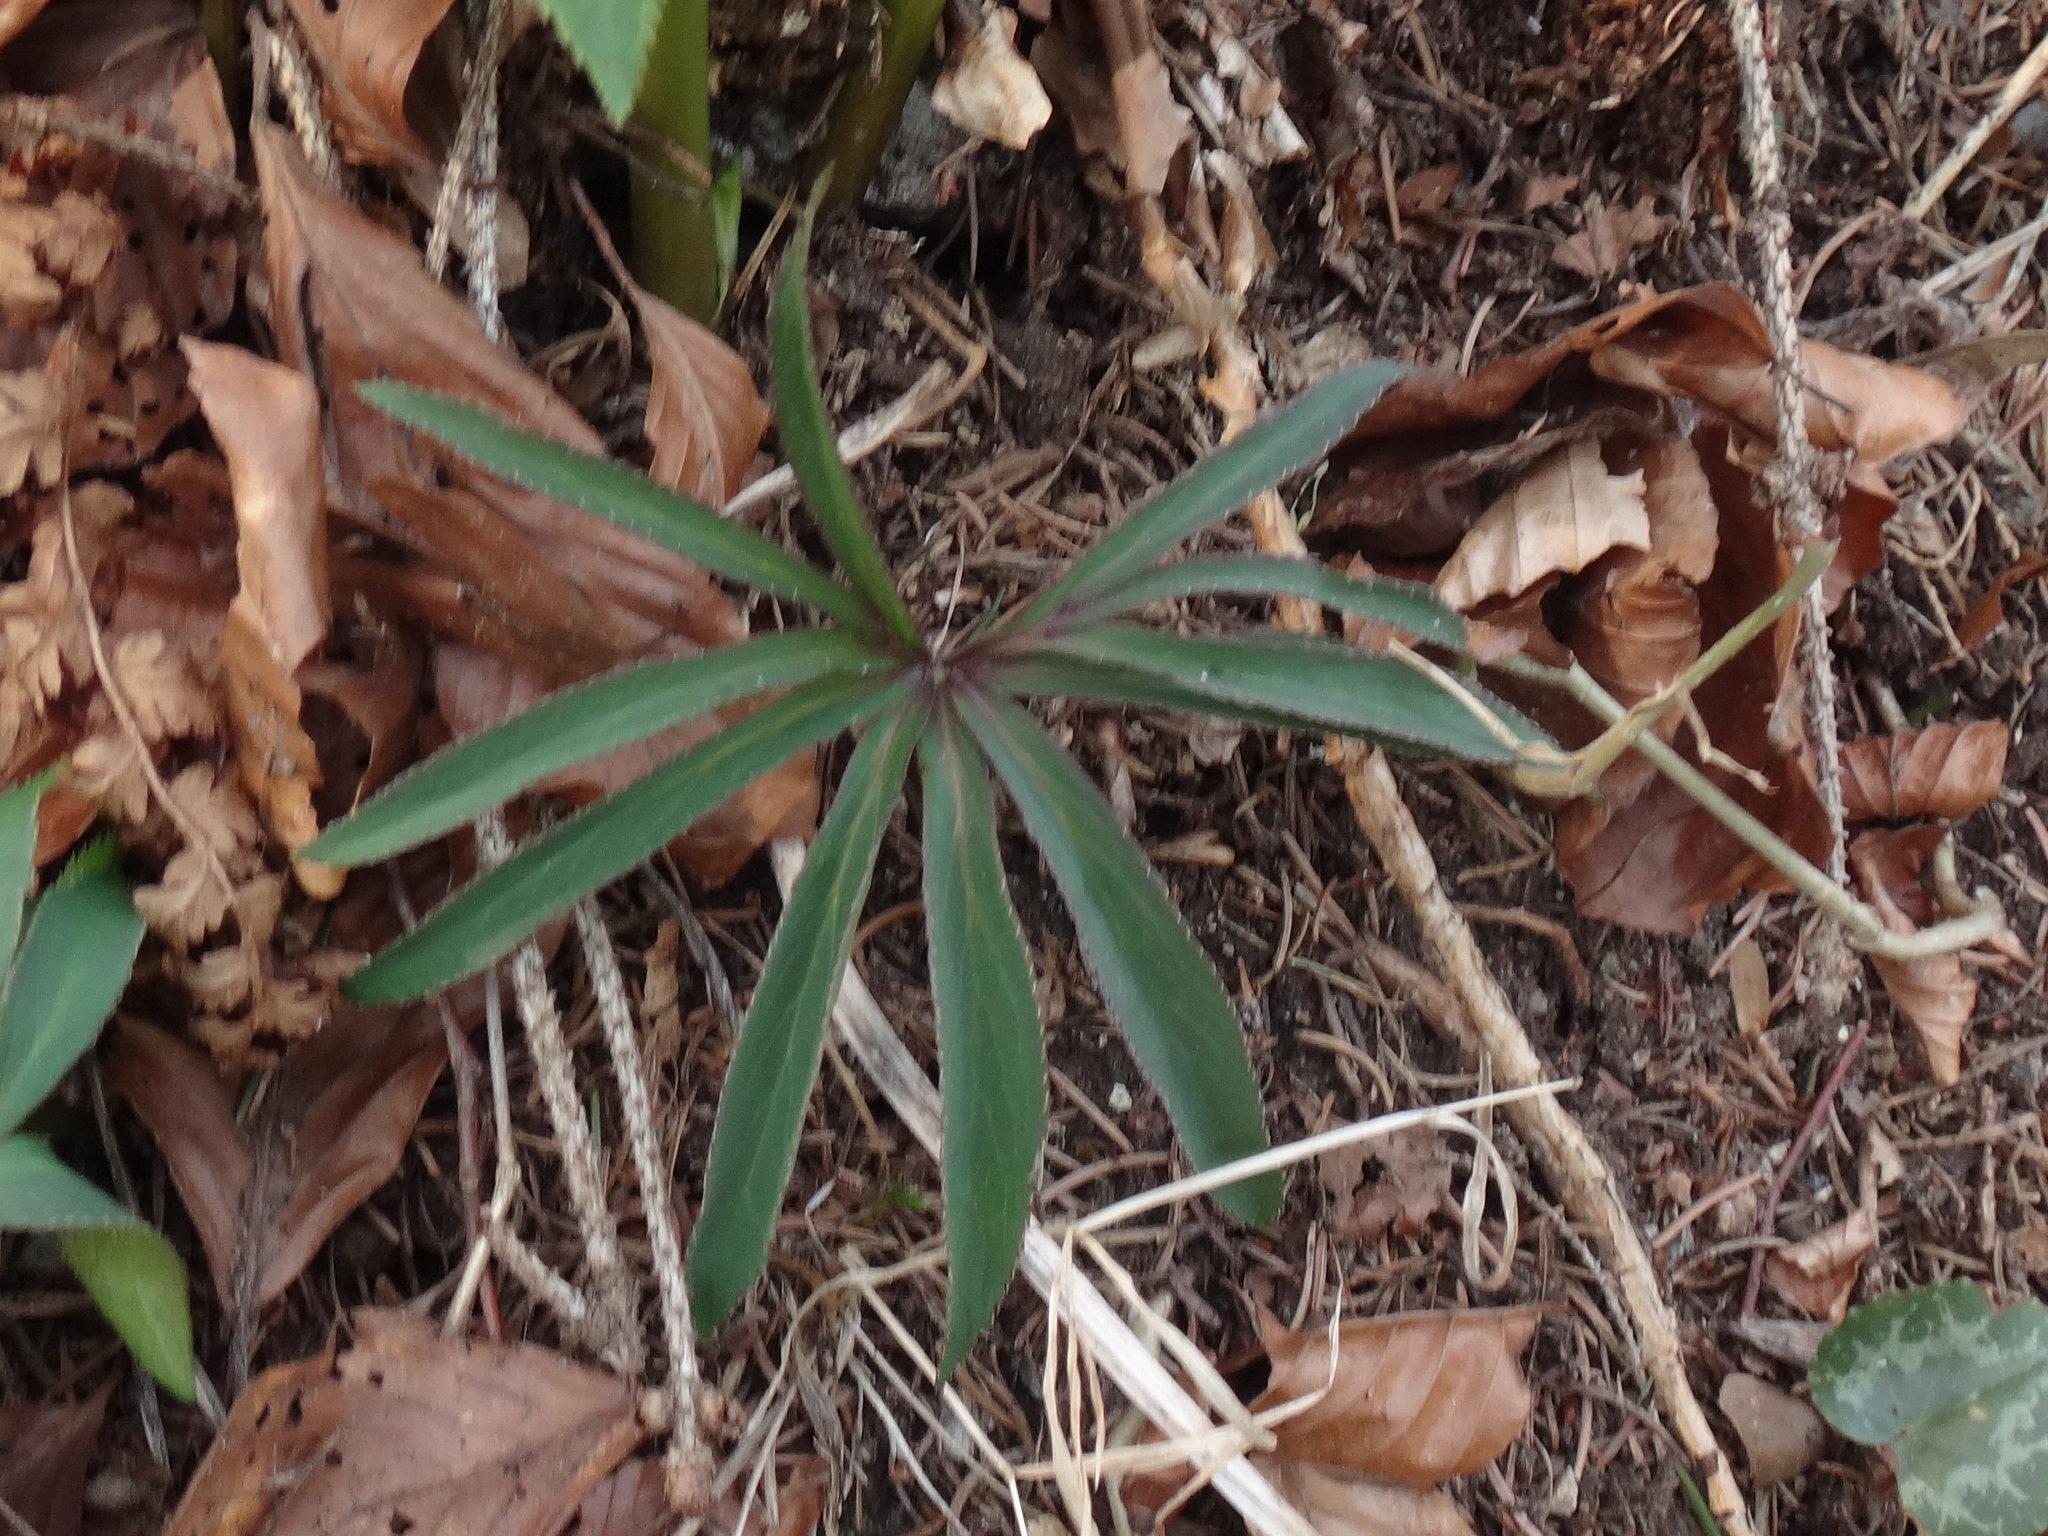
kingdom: Plantae
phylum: Tracheophyta
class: Magnoliopsida
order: Ranunculales
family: Ranunculaceae
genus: Helleborus
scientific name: Helleborus viridis
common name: Green hellebore
